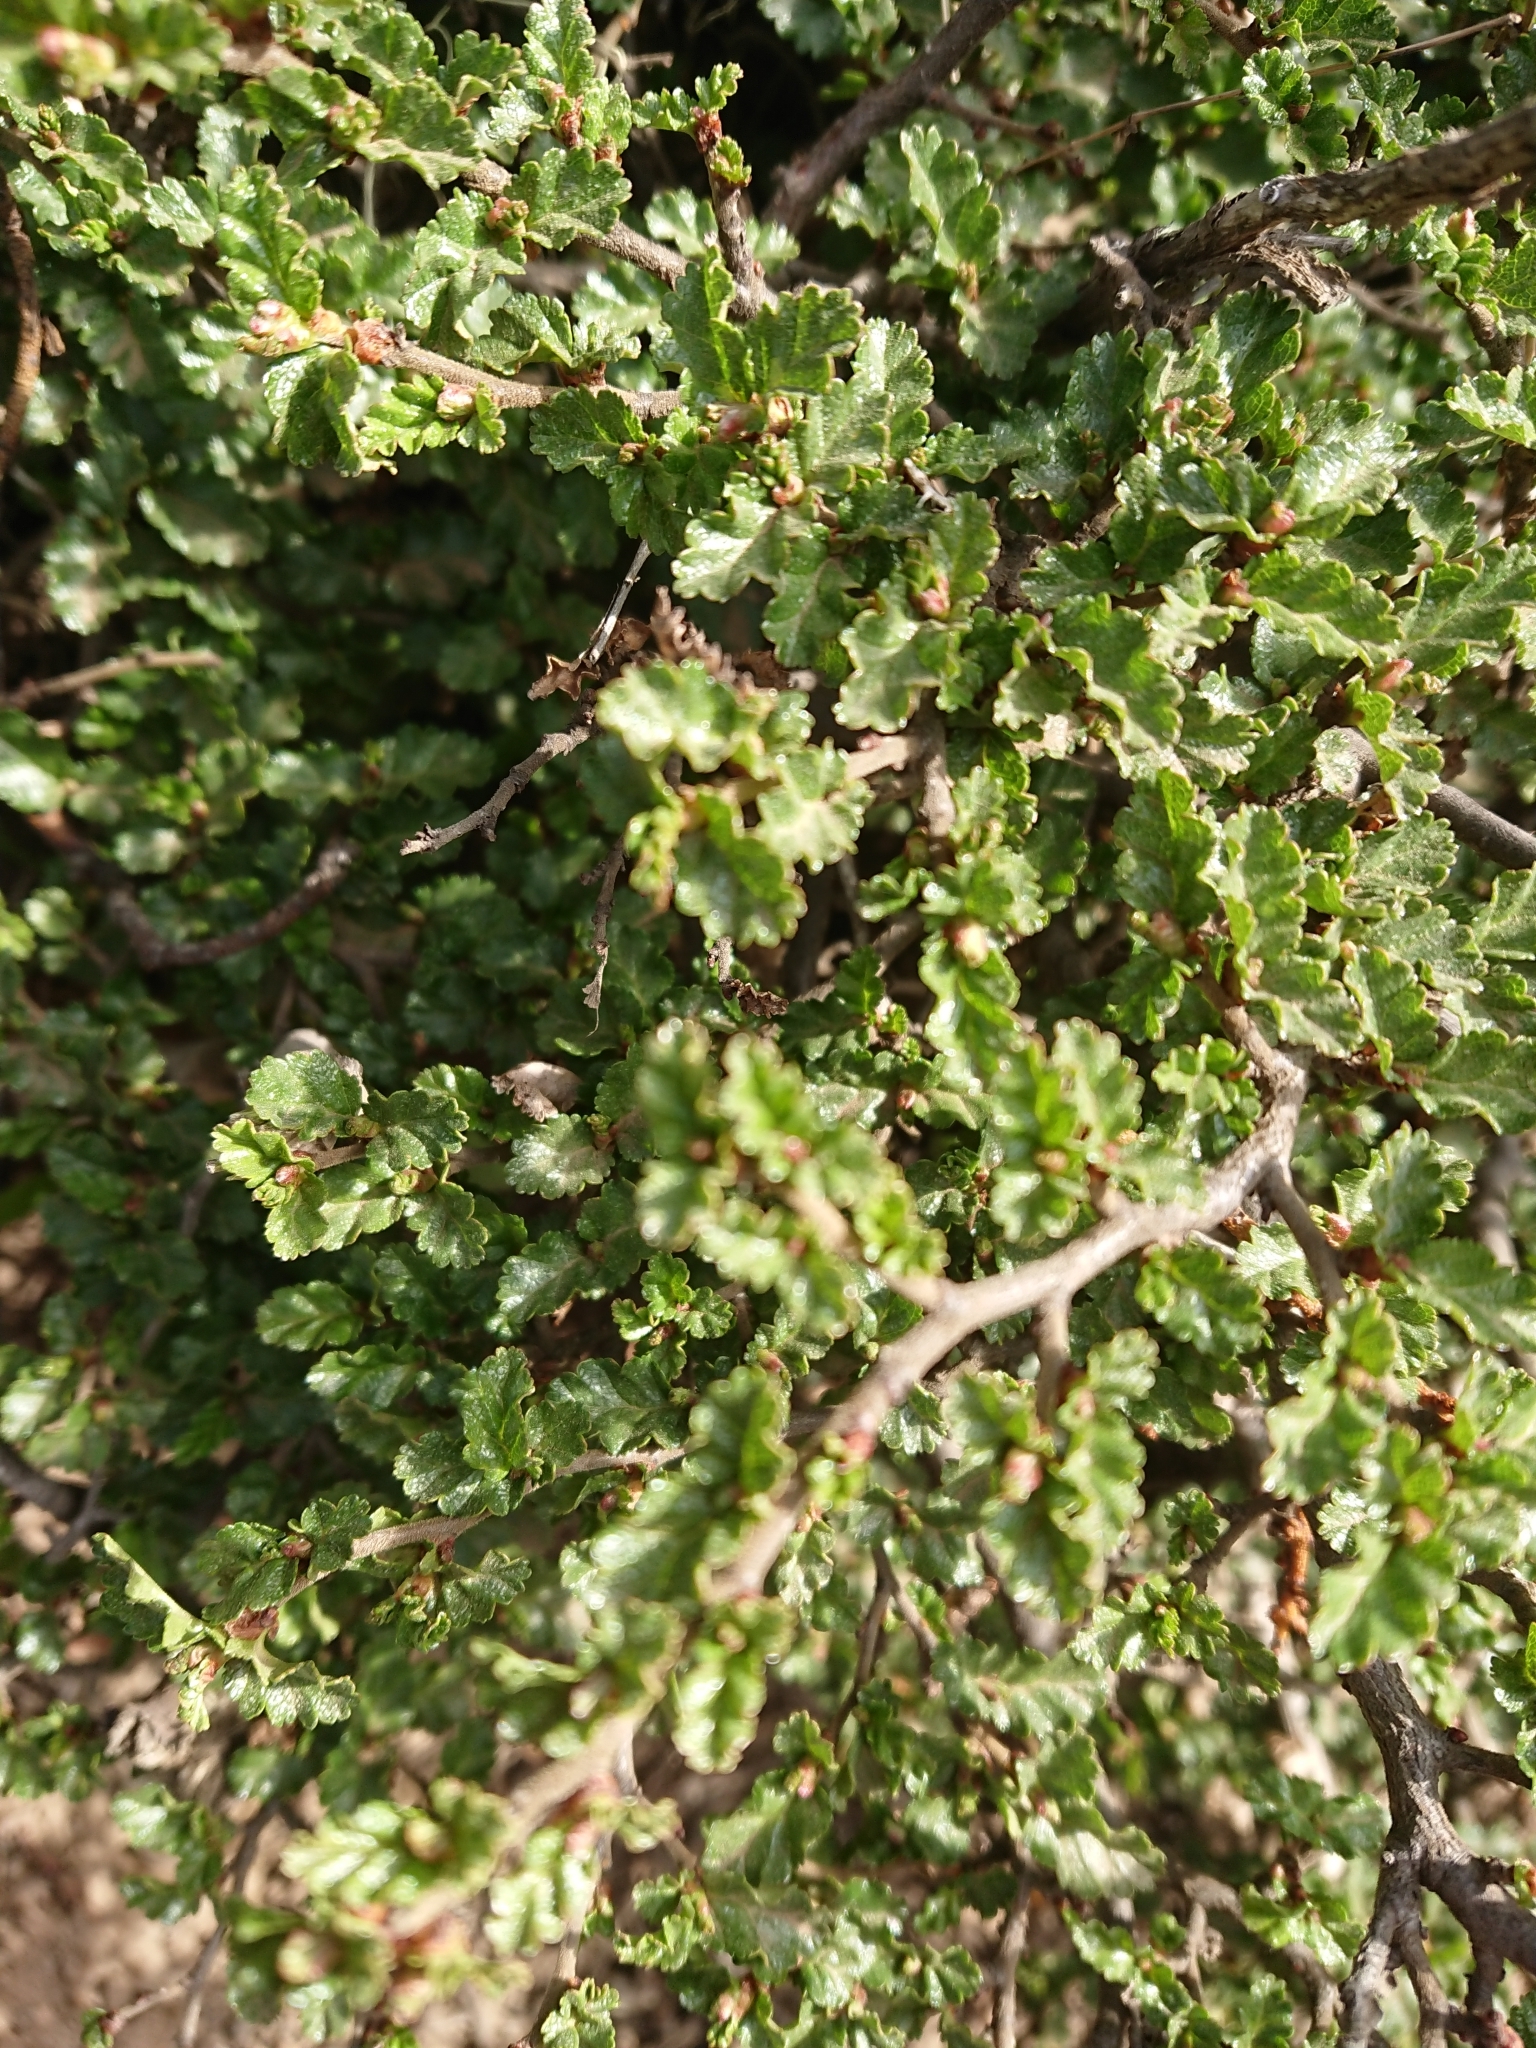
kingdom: Plantae
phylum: Tracheophyta
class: Magnoliopsida
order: Fagales
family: Nothofagaceae
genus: Nothofagus
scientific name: Nothofagus antarctica
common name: Antarctic beech
